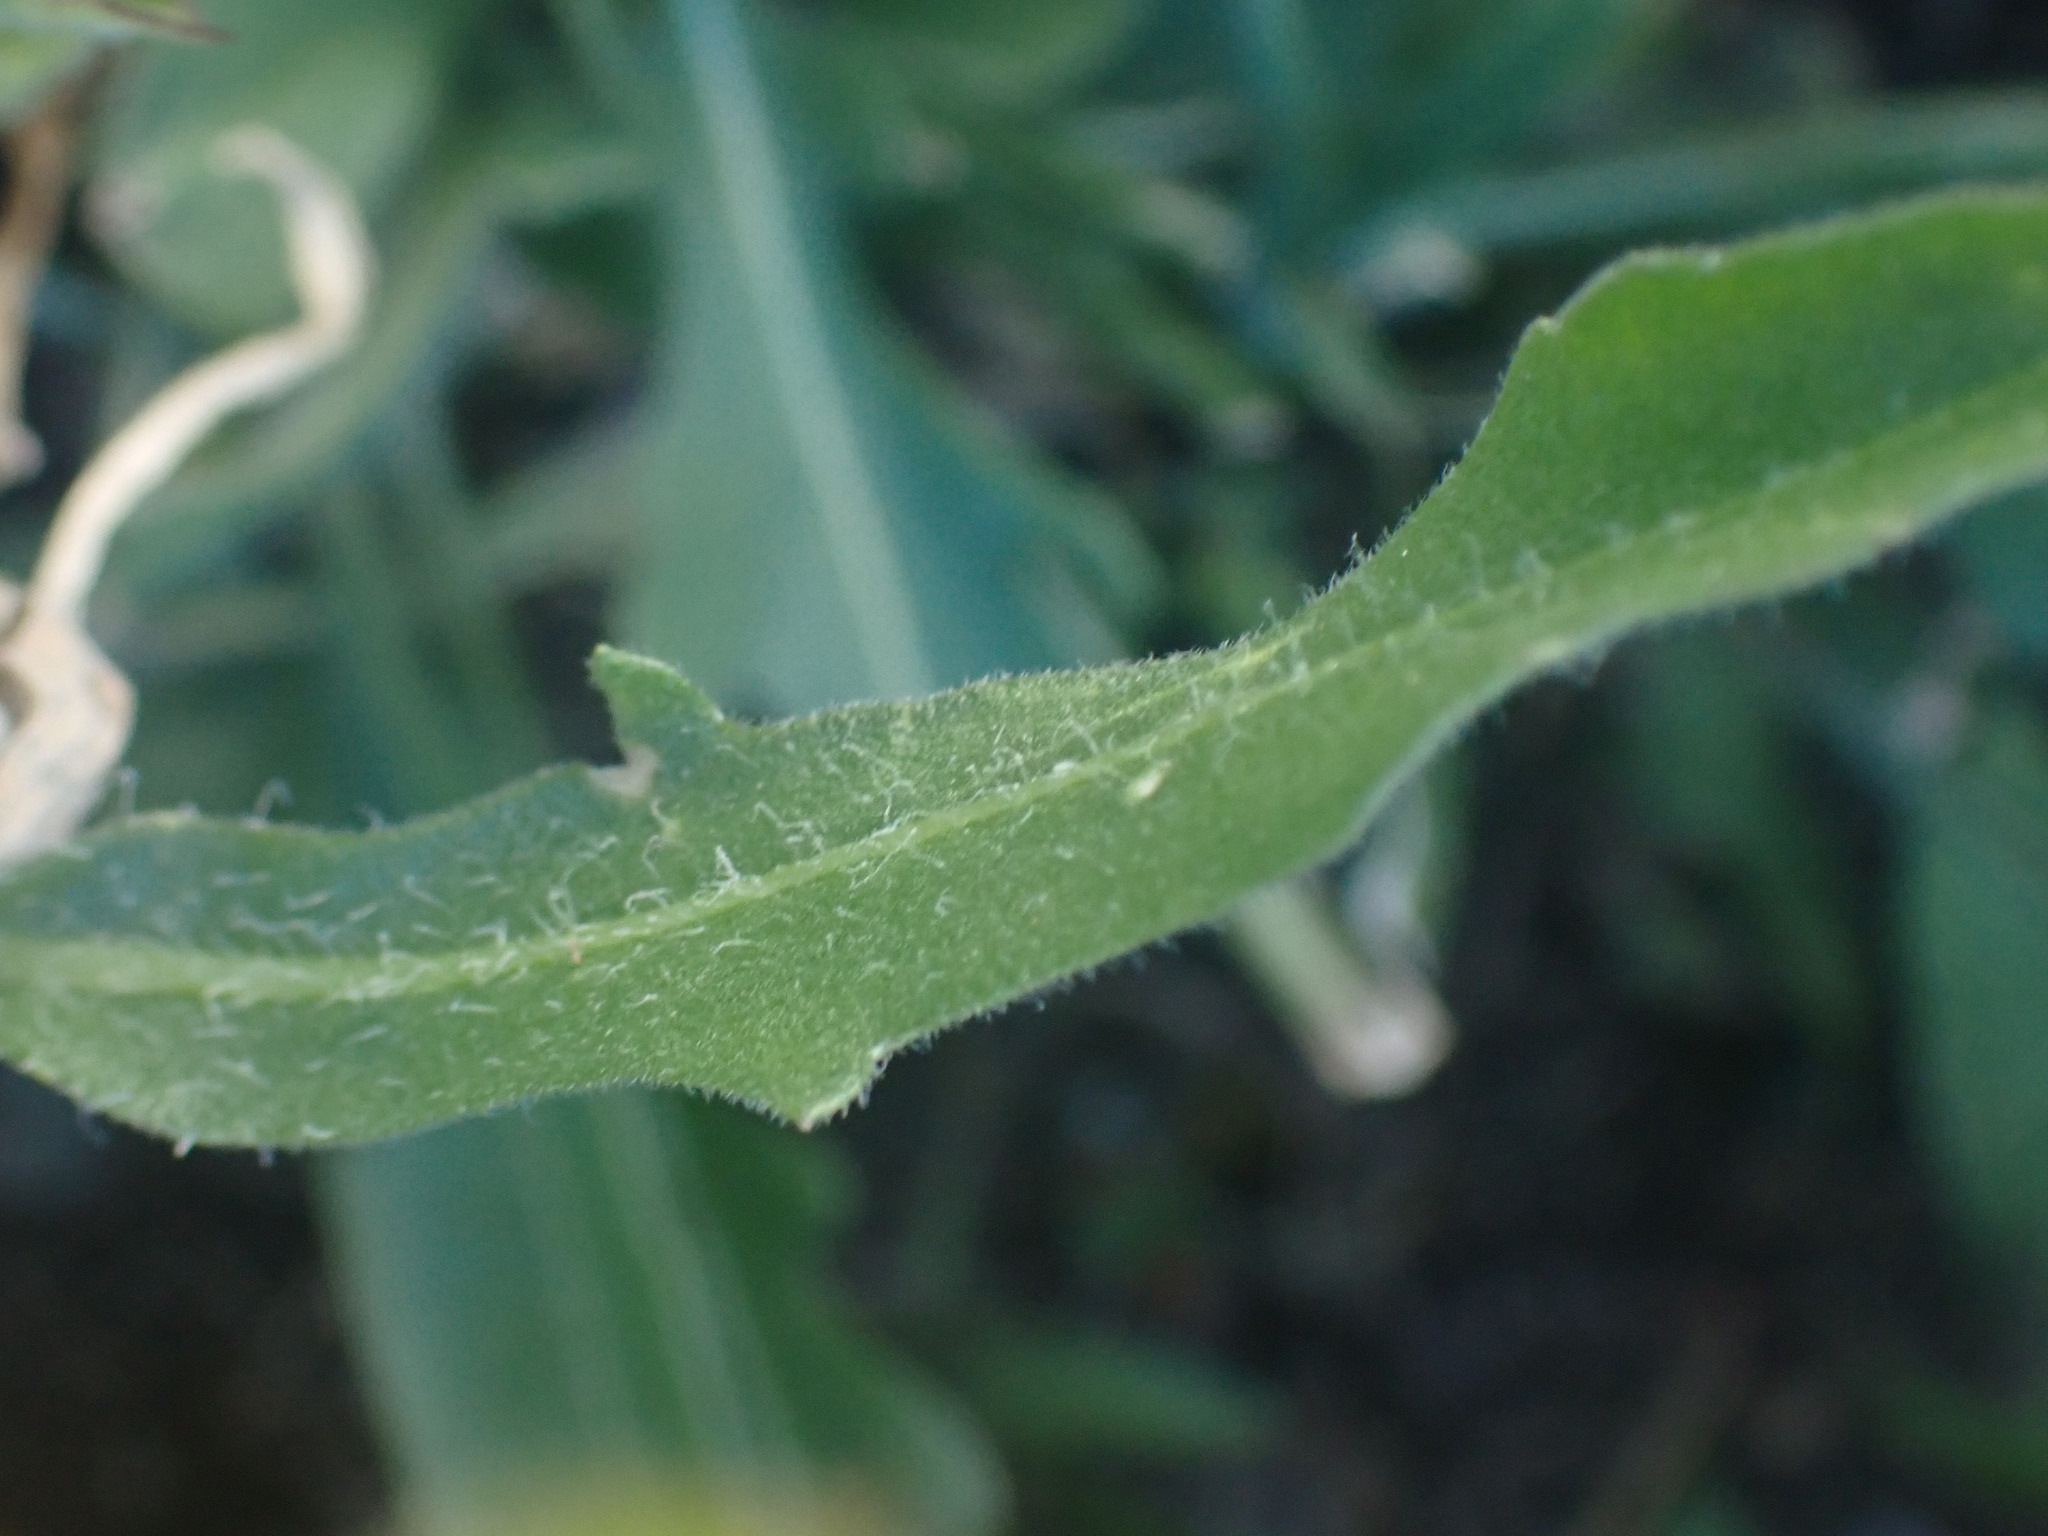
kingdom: Plantae
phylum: Tracheophyta
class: Magnoliopsida
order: Asterales
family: Asteraceae
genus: Gaillardia
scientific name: Gaillardia aristata
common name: Blanket-flower
